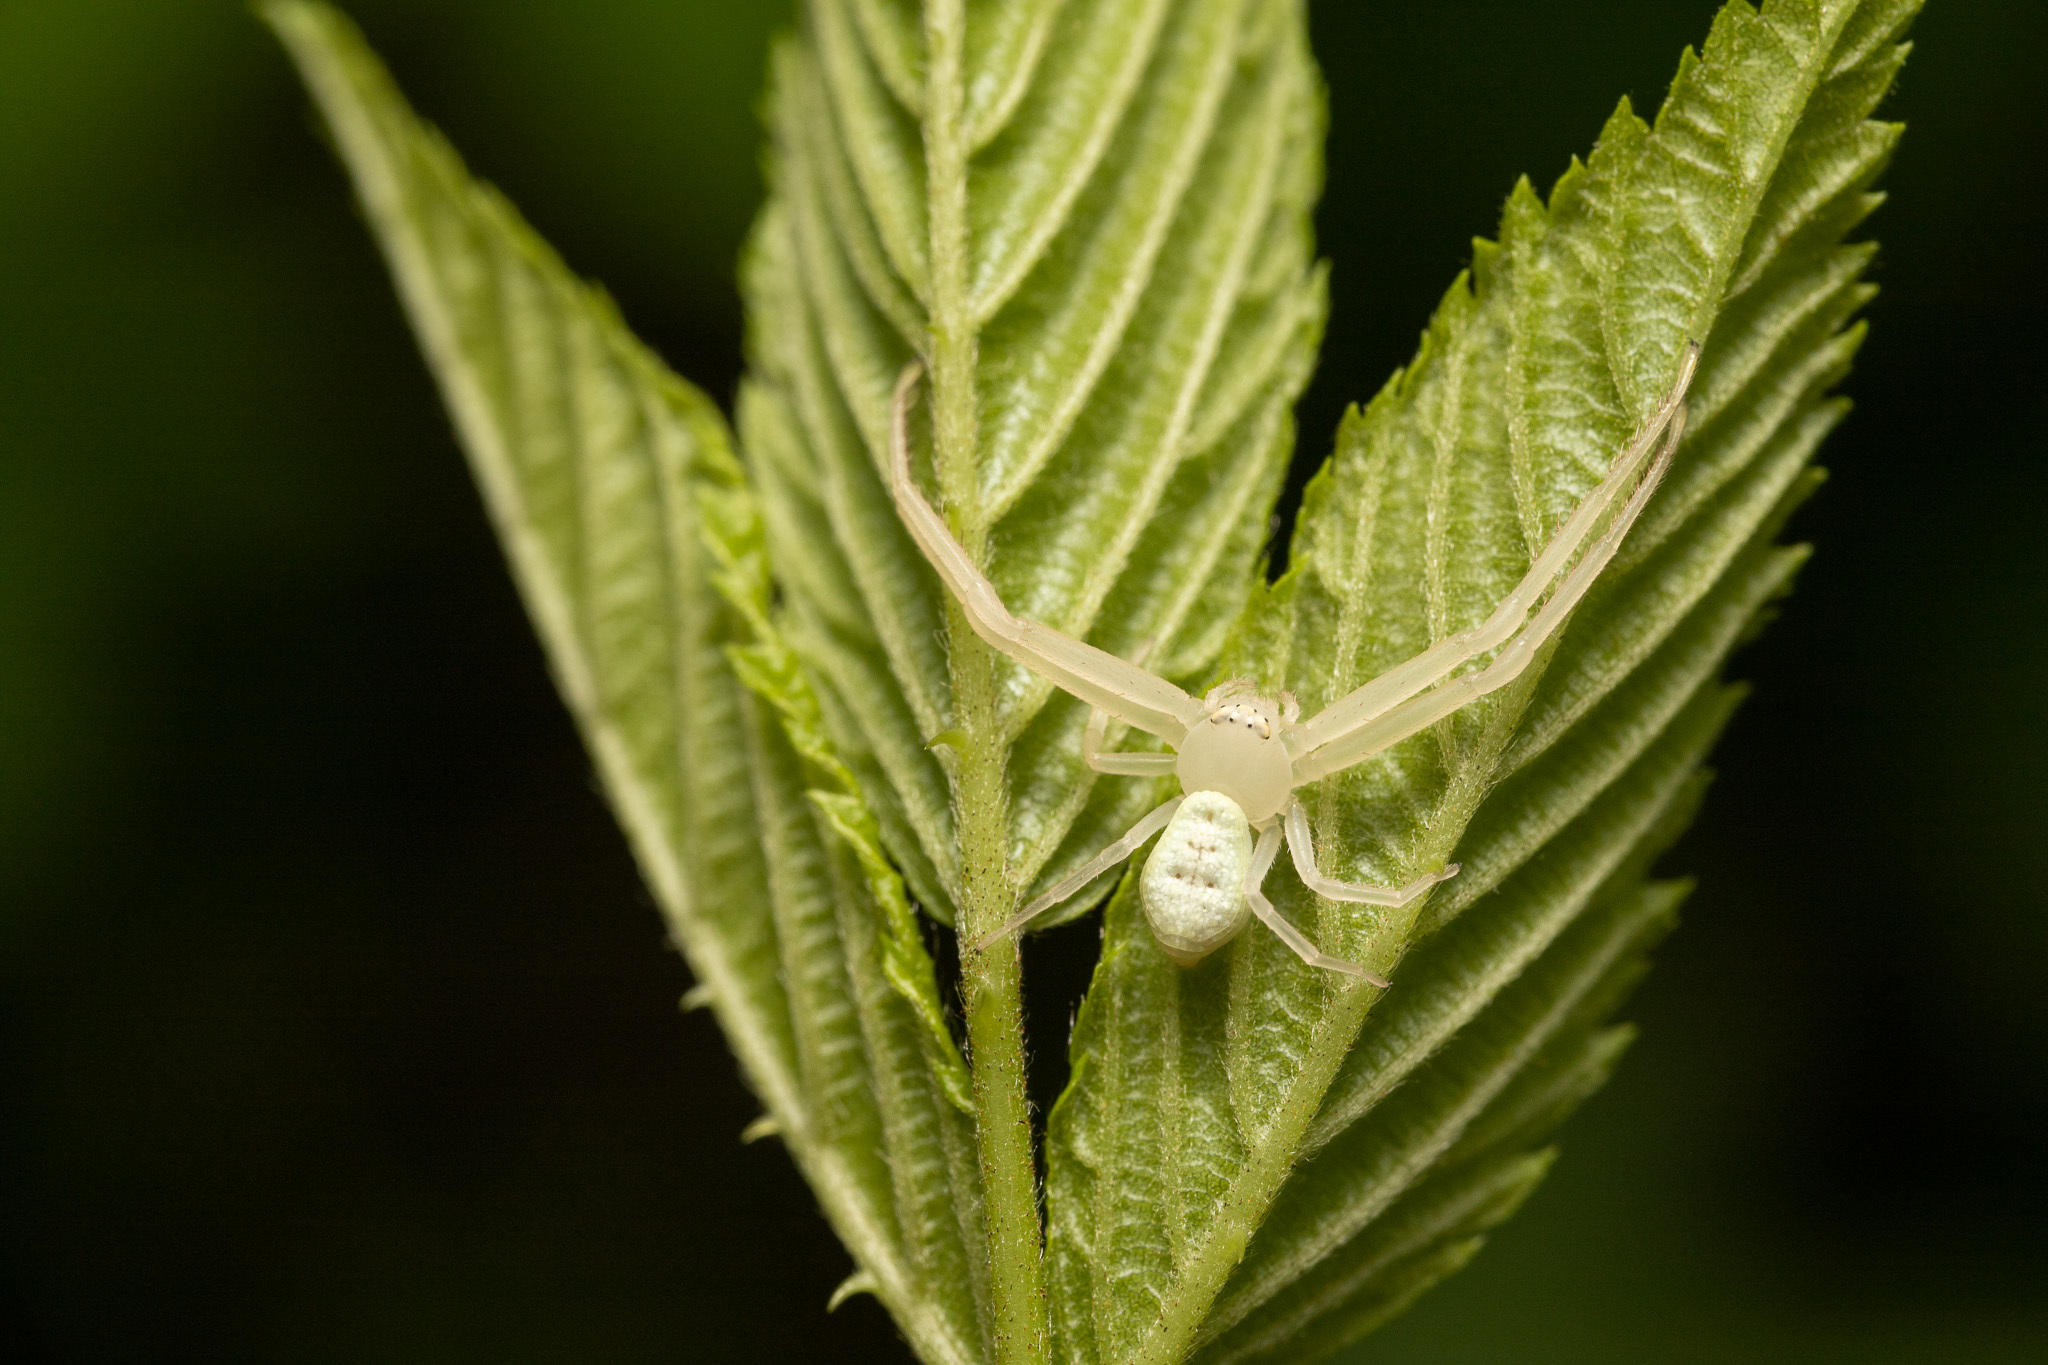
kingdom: Animalia
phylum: Arthropoda
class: Arachnida
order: Araneae
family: Thomisidae
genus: Misumessus
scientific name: Misumessus oblongus
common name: American green crab spider
